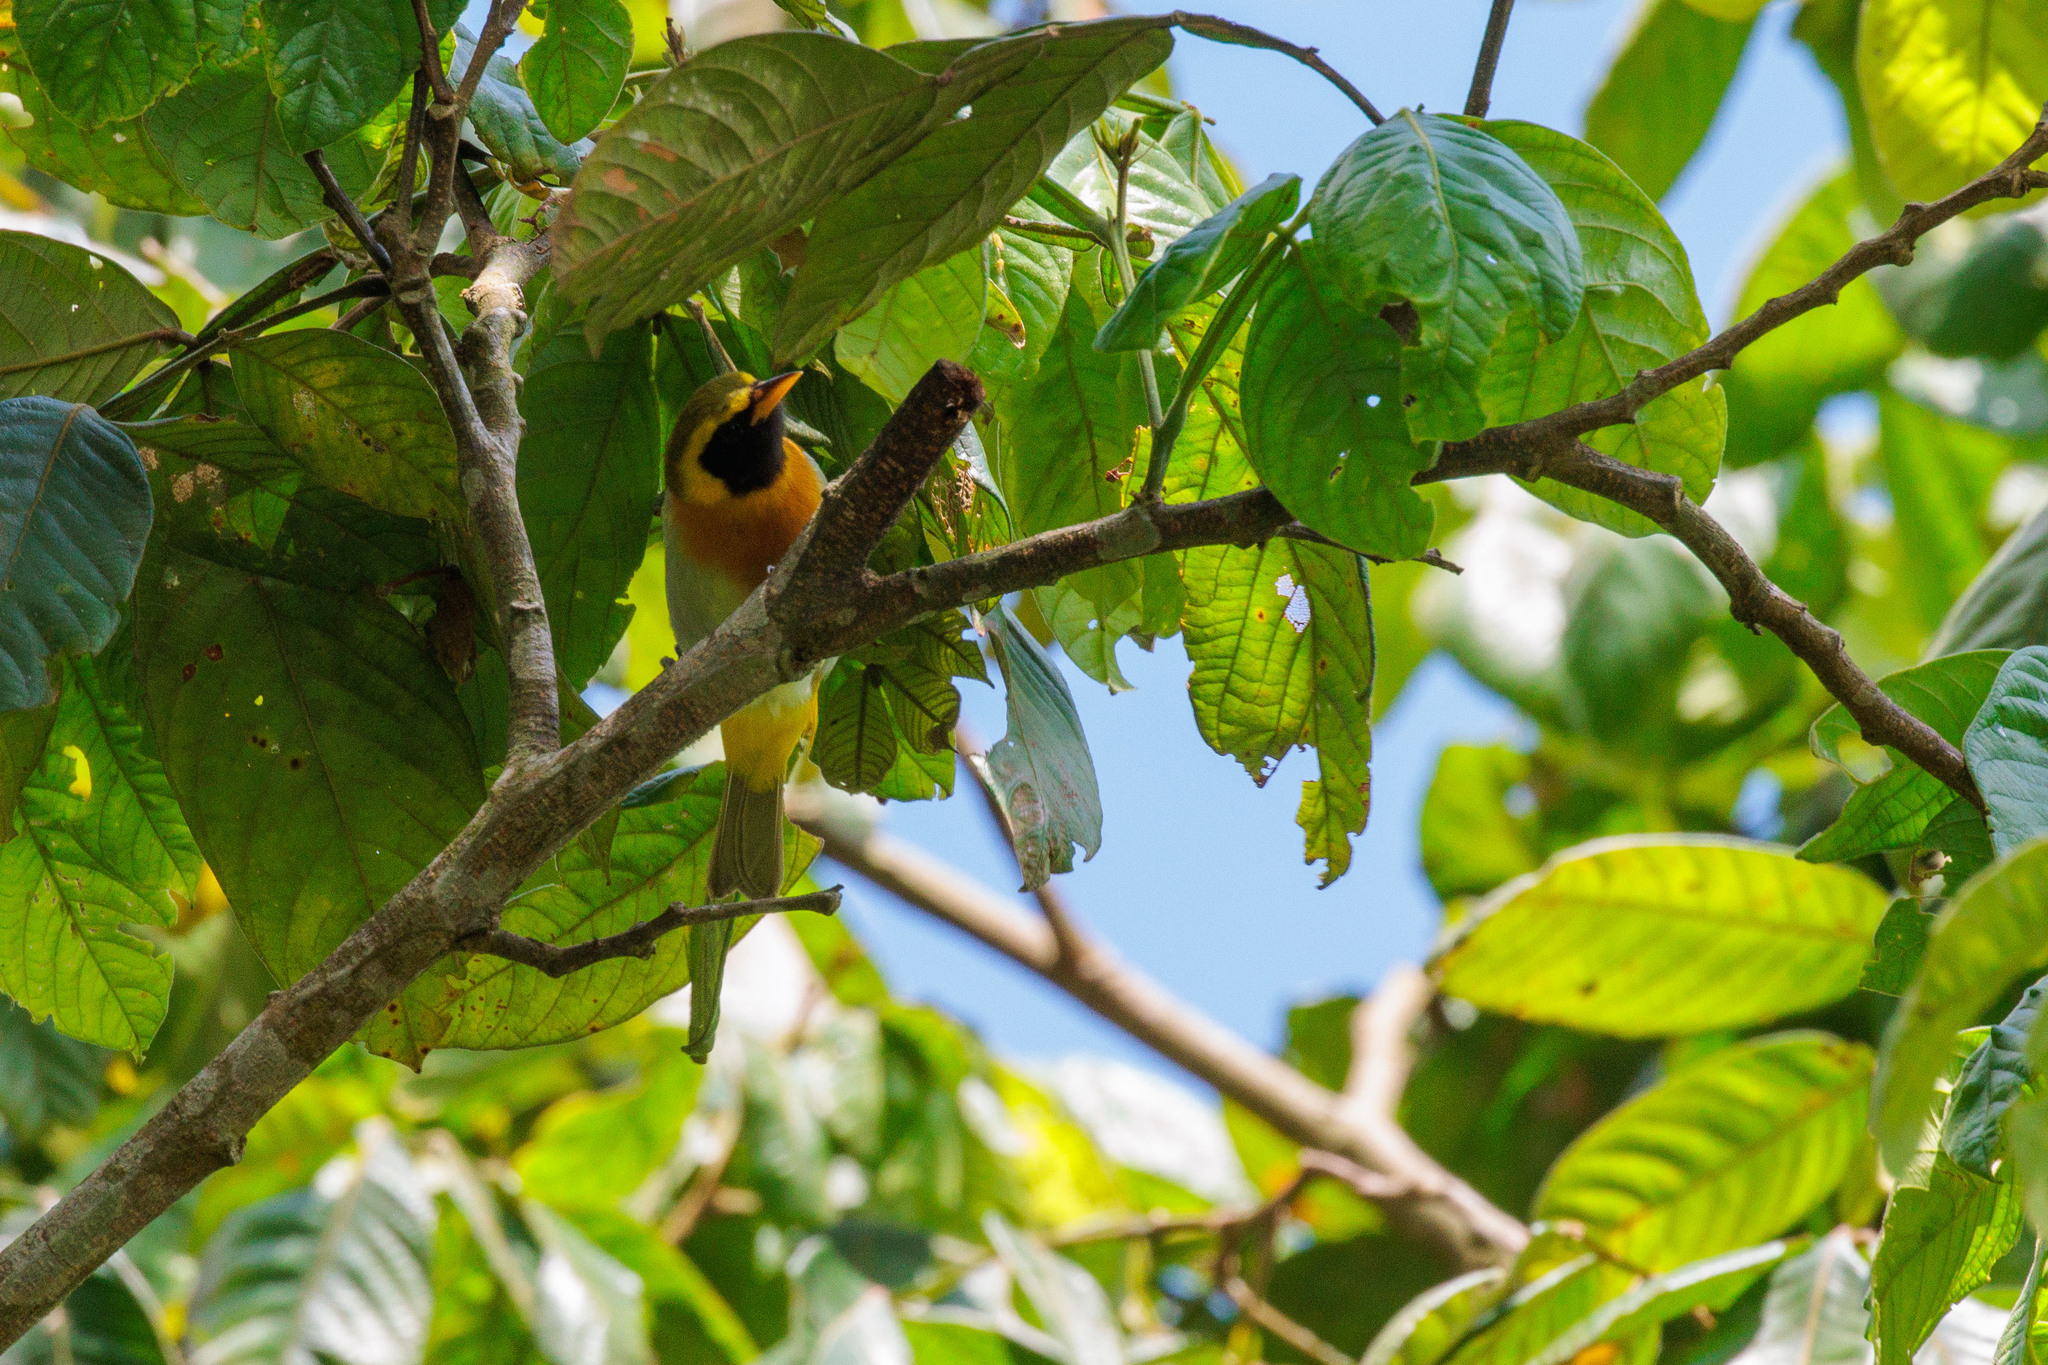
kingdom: Animalia
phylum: Chordata
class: Aves
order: Passeriformes
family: Thraupidae
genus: Hemithraupis
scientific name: Hemithraupis guira
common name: Guira tanager
